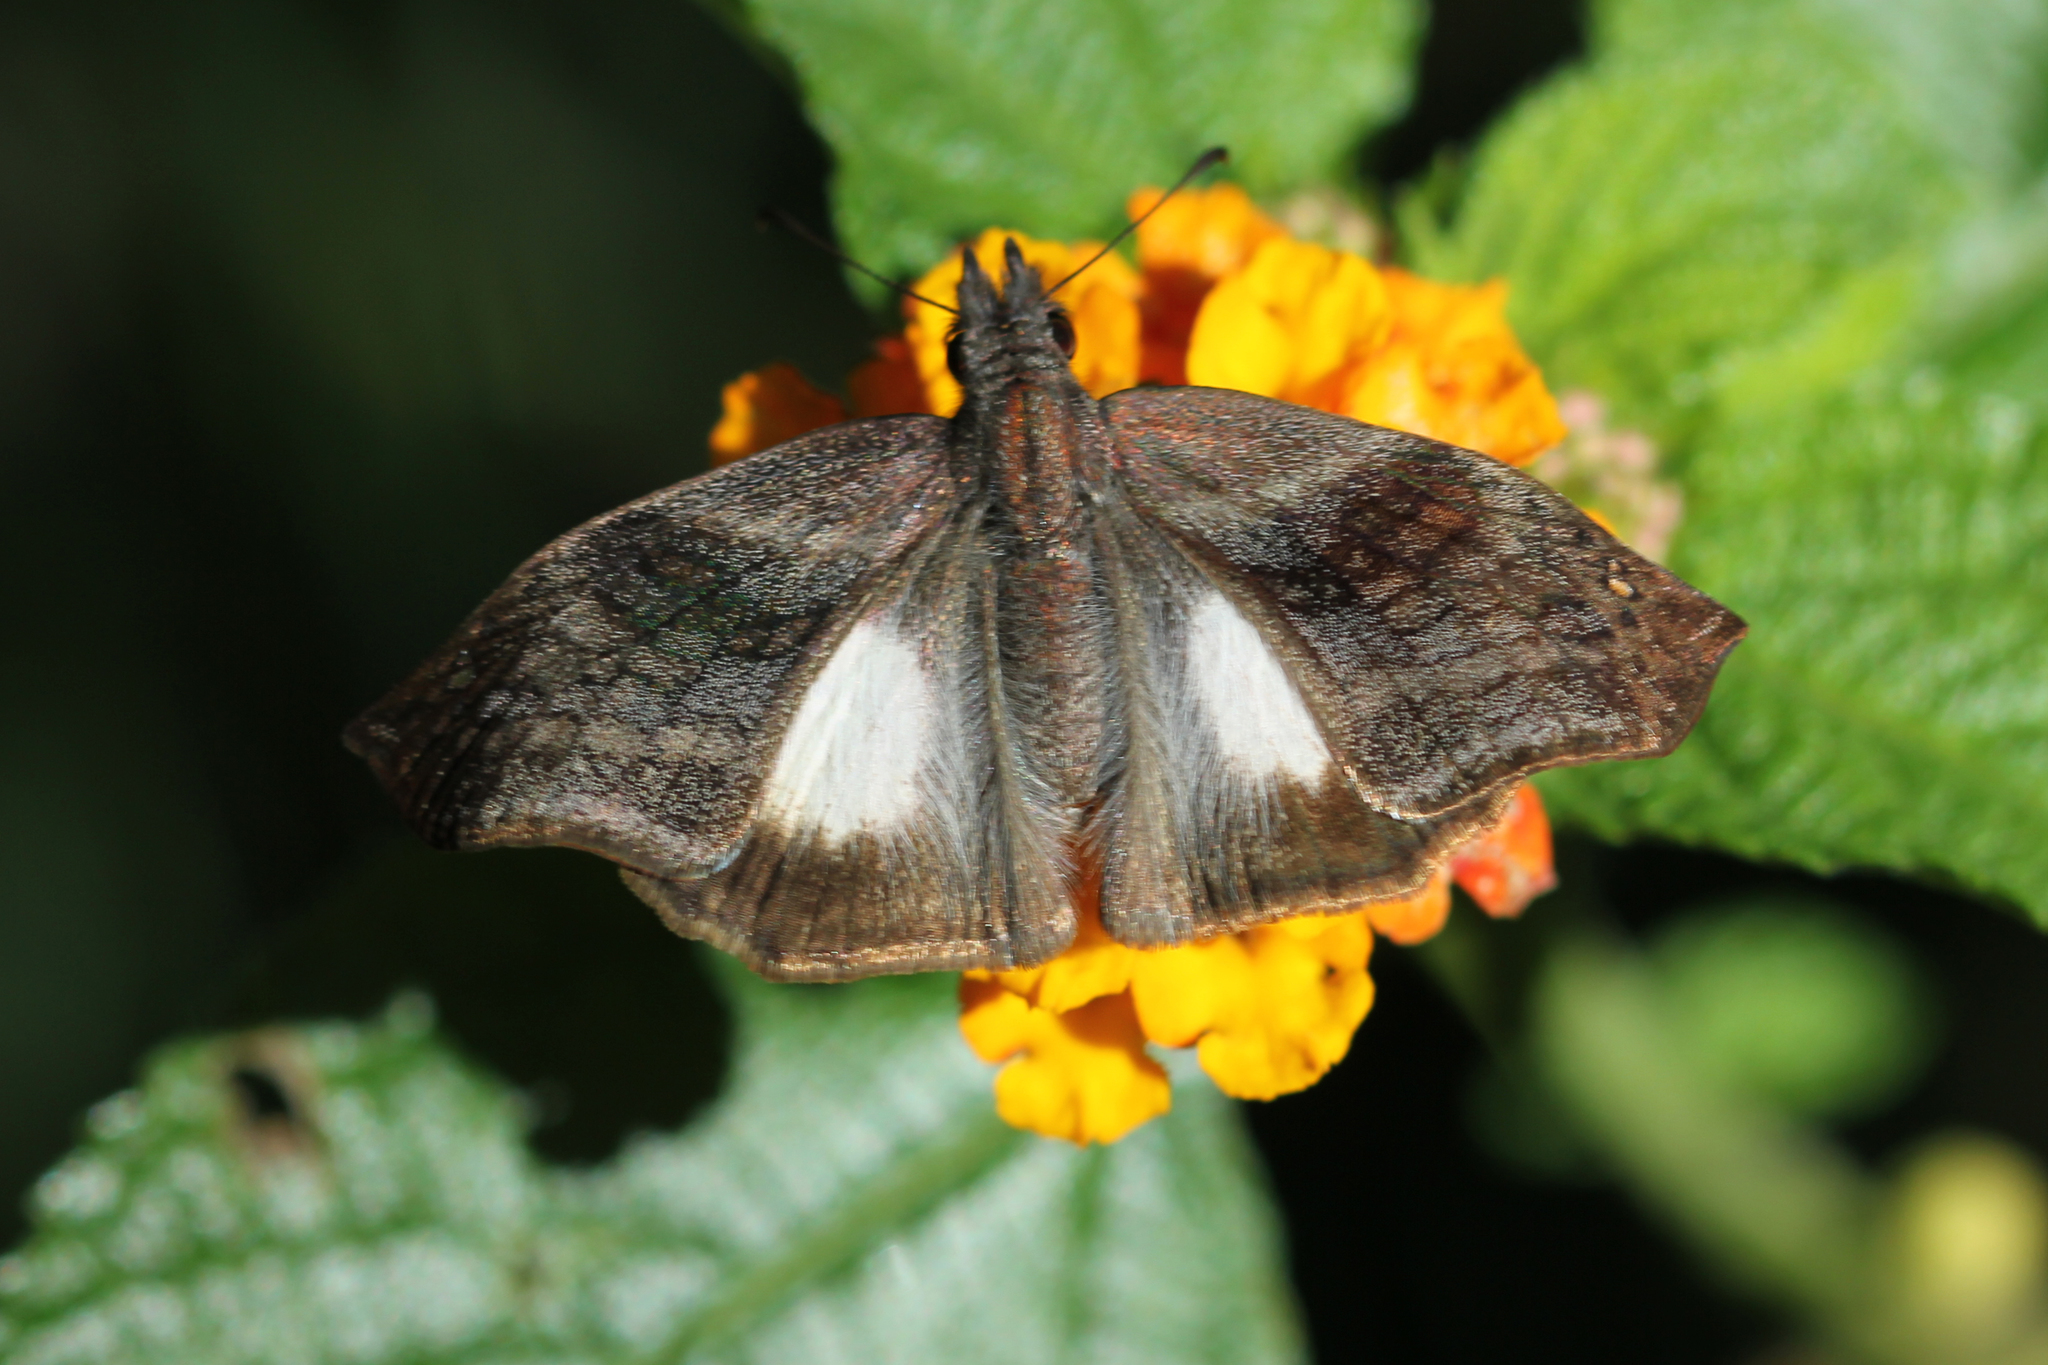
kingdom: Animalia
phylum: Arthropoda
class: Insecta
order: Lepidoptera
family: Hesperiidae
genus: Theagenes
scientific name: Theagenes
